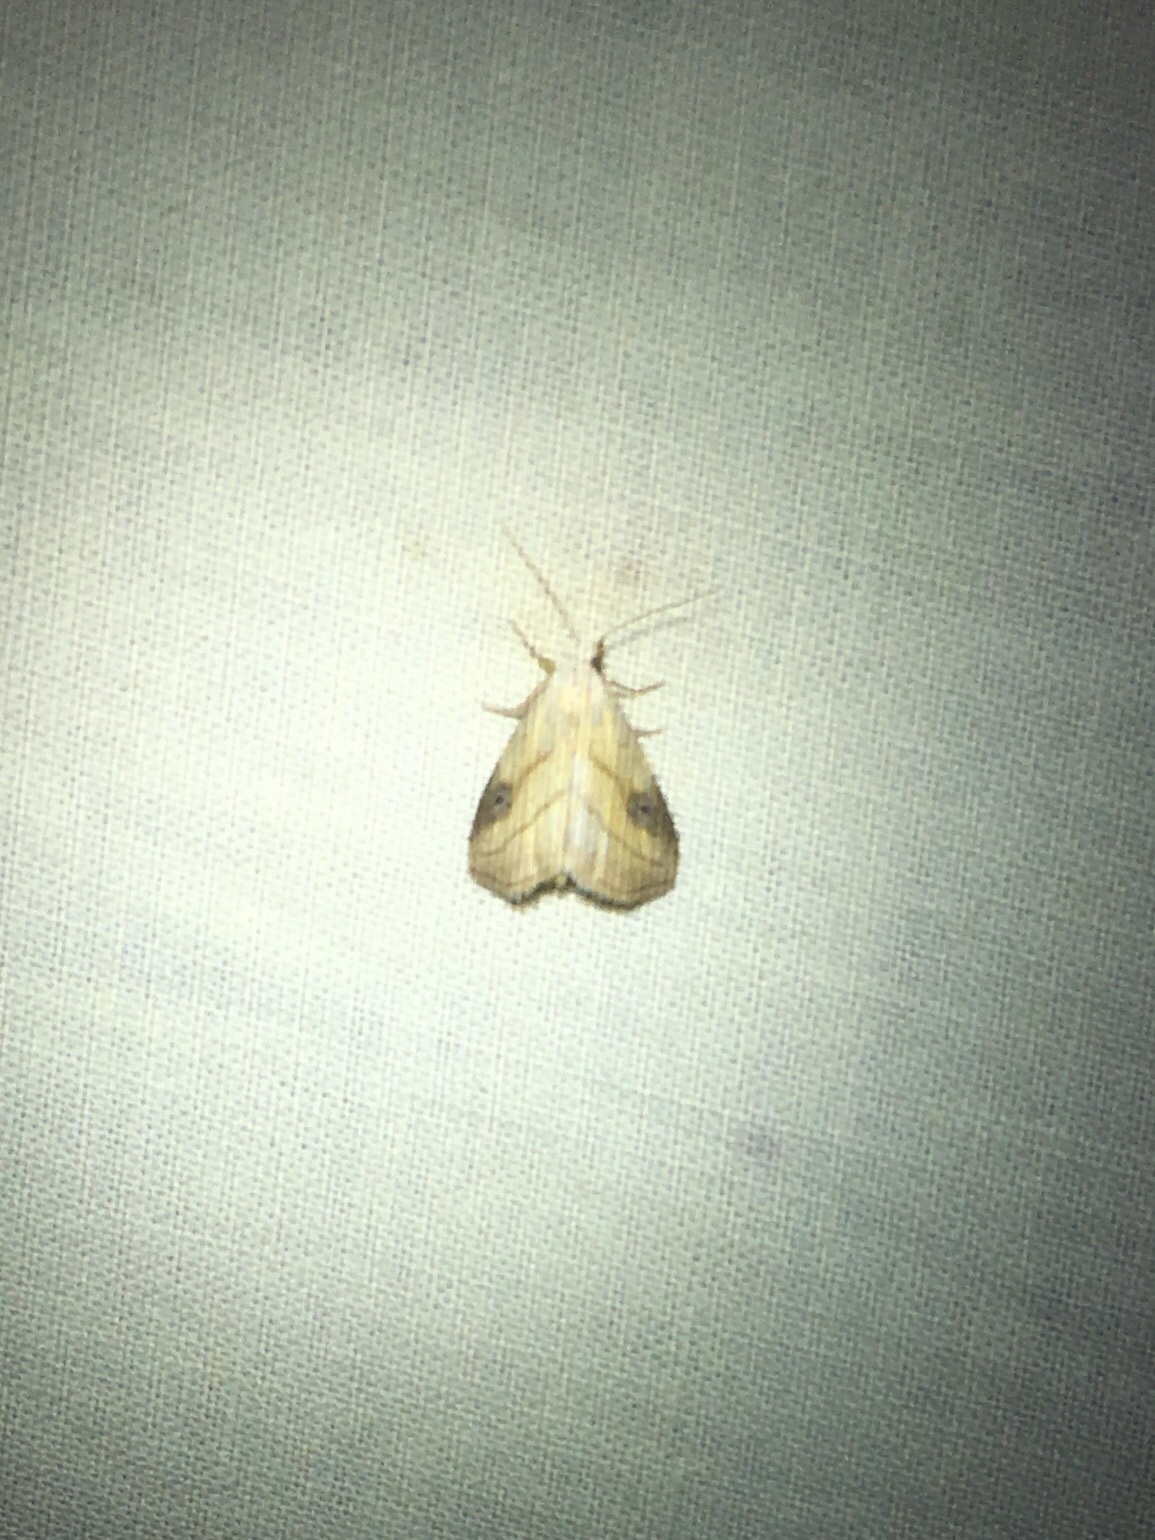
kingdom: Animalia
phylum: Arthropoda
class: Insecta
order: Lepidoptera
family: Erebidae
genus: Rivula
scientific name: Rivula propinqualis
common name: Spotted grass moth
